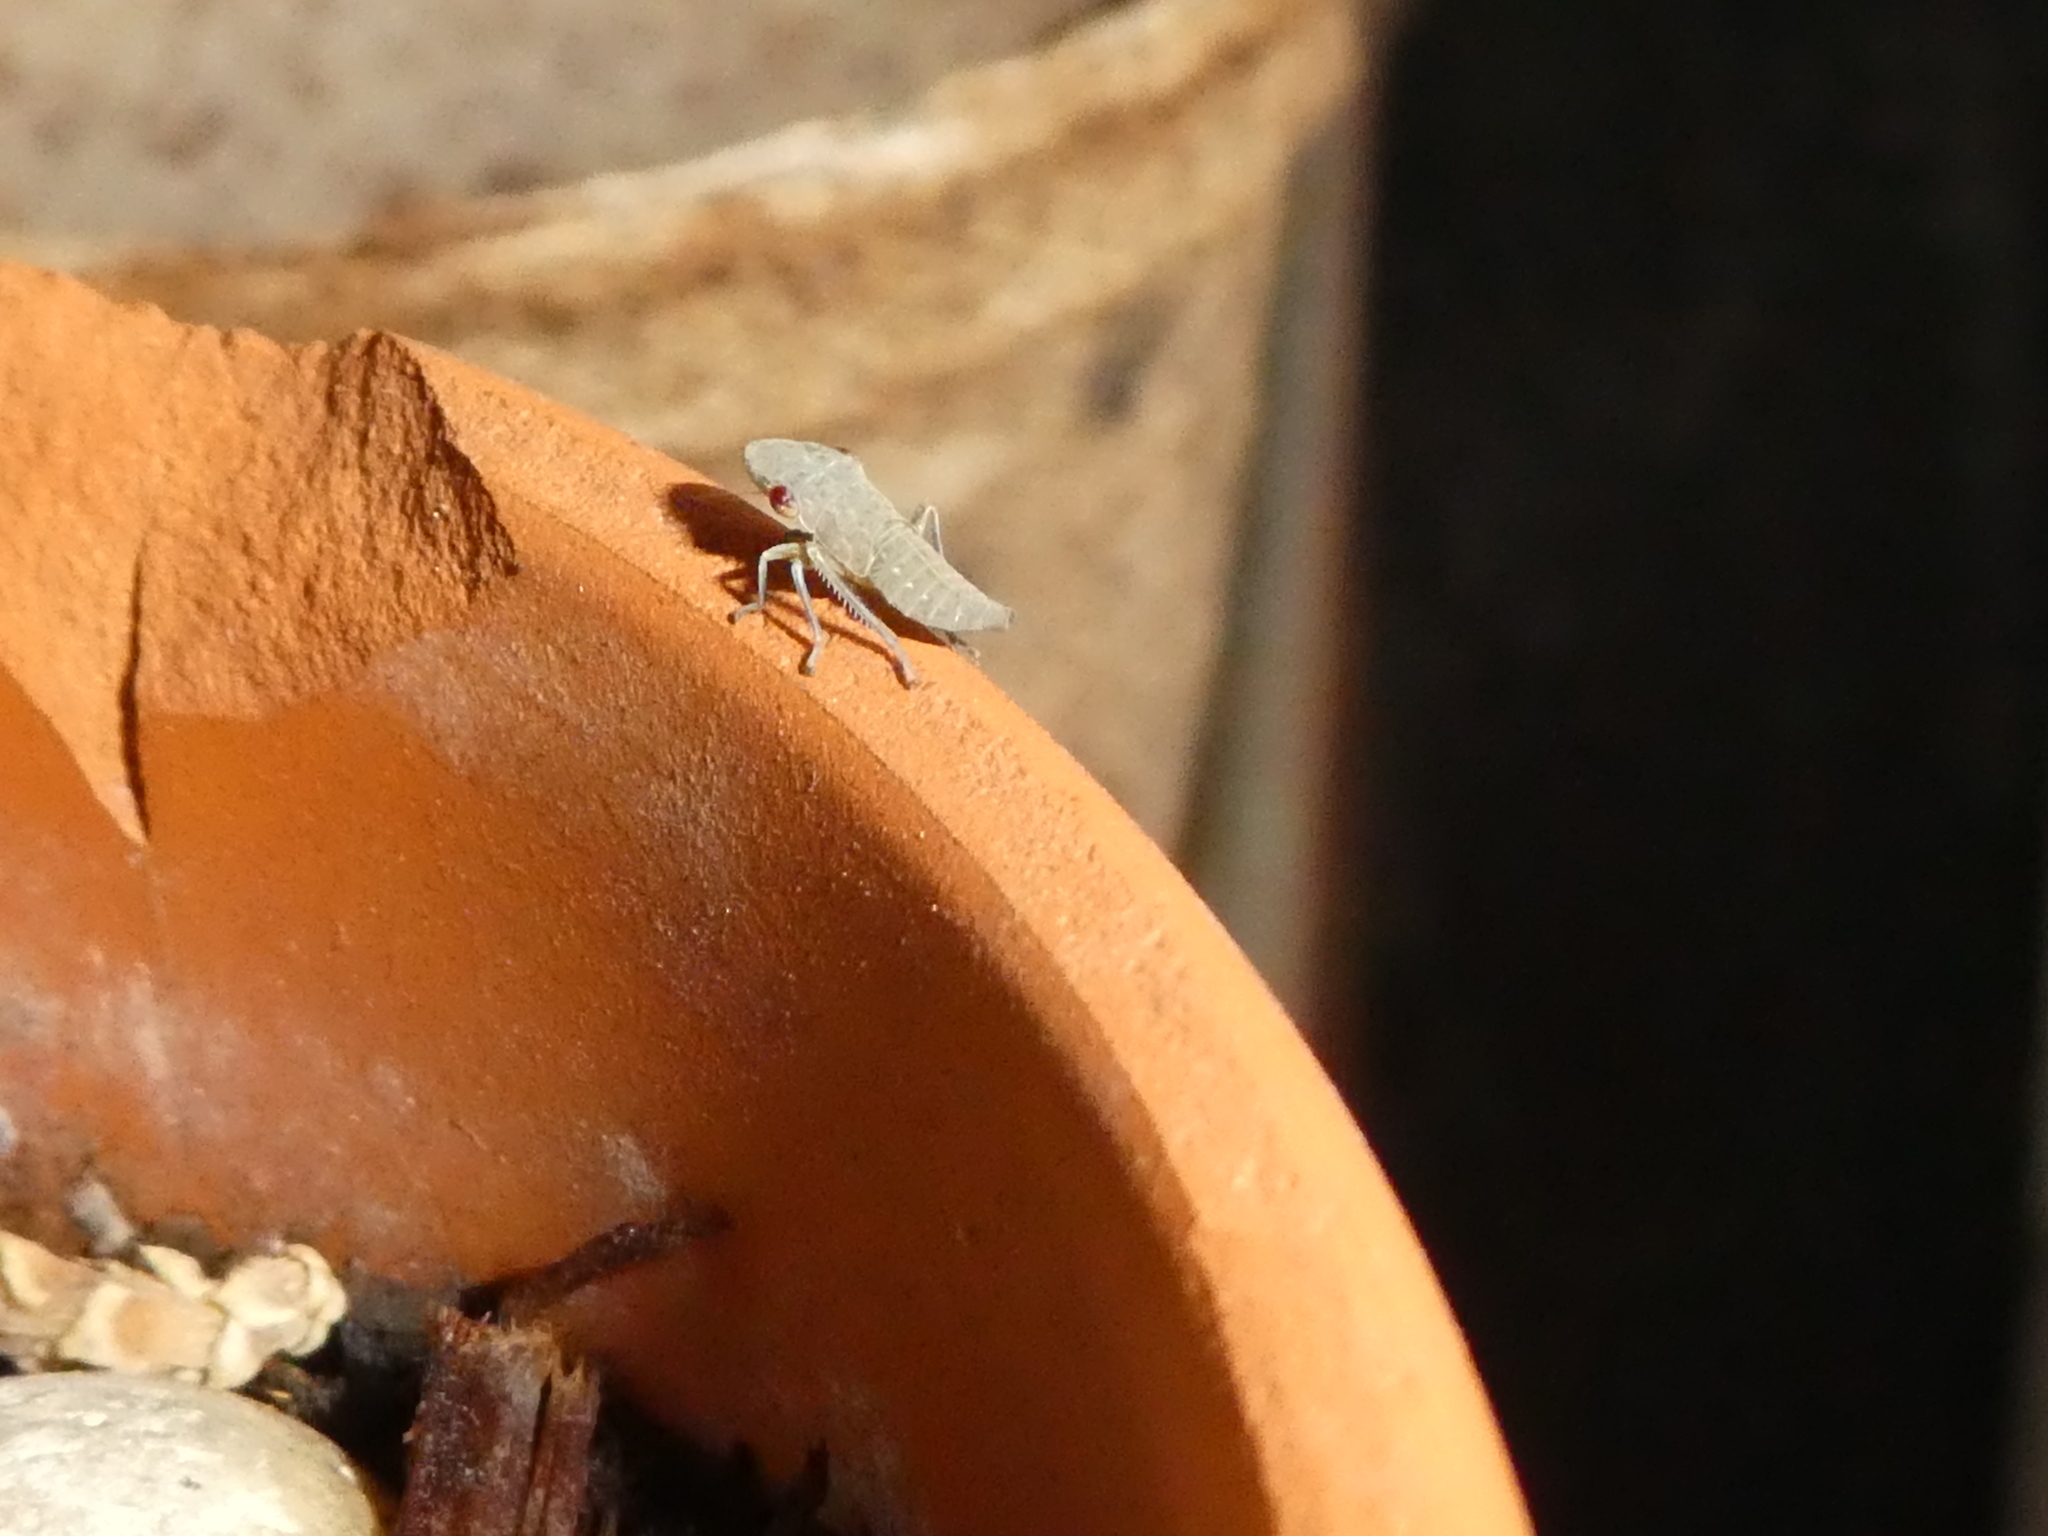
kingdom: Animalia
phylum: Arthropoda
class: Insecta
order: Hemiptera
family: Cicadellidae
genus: Homalodisca
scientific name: Homalodisca
